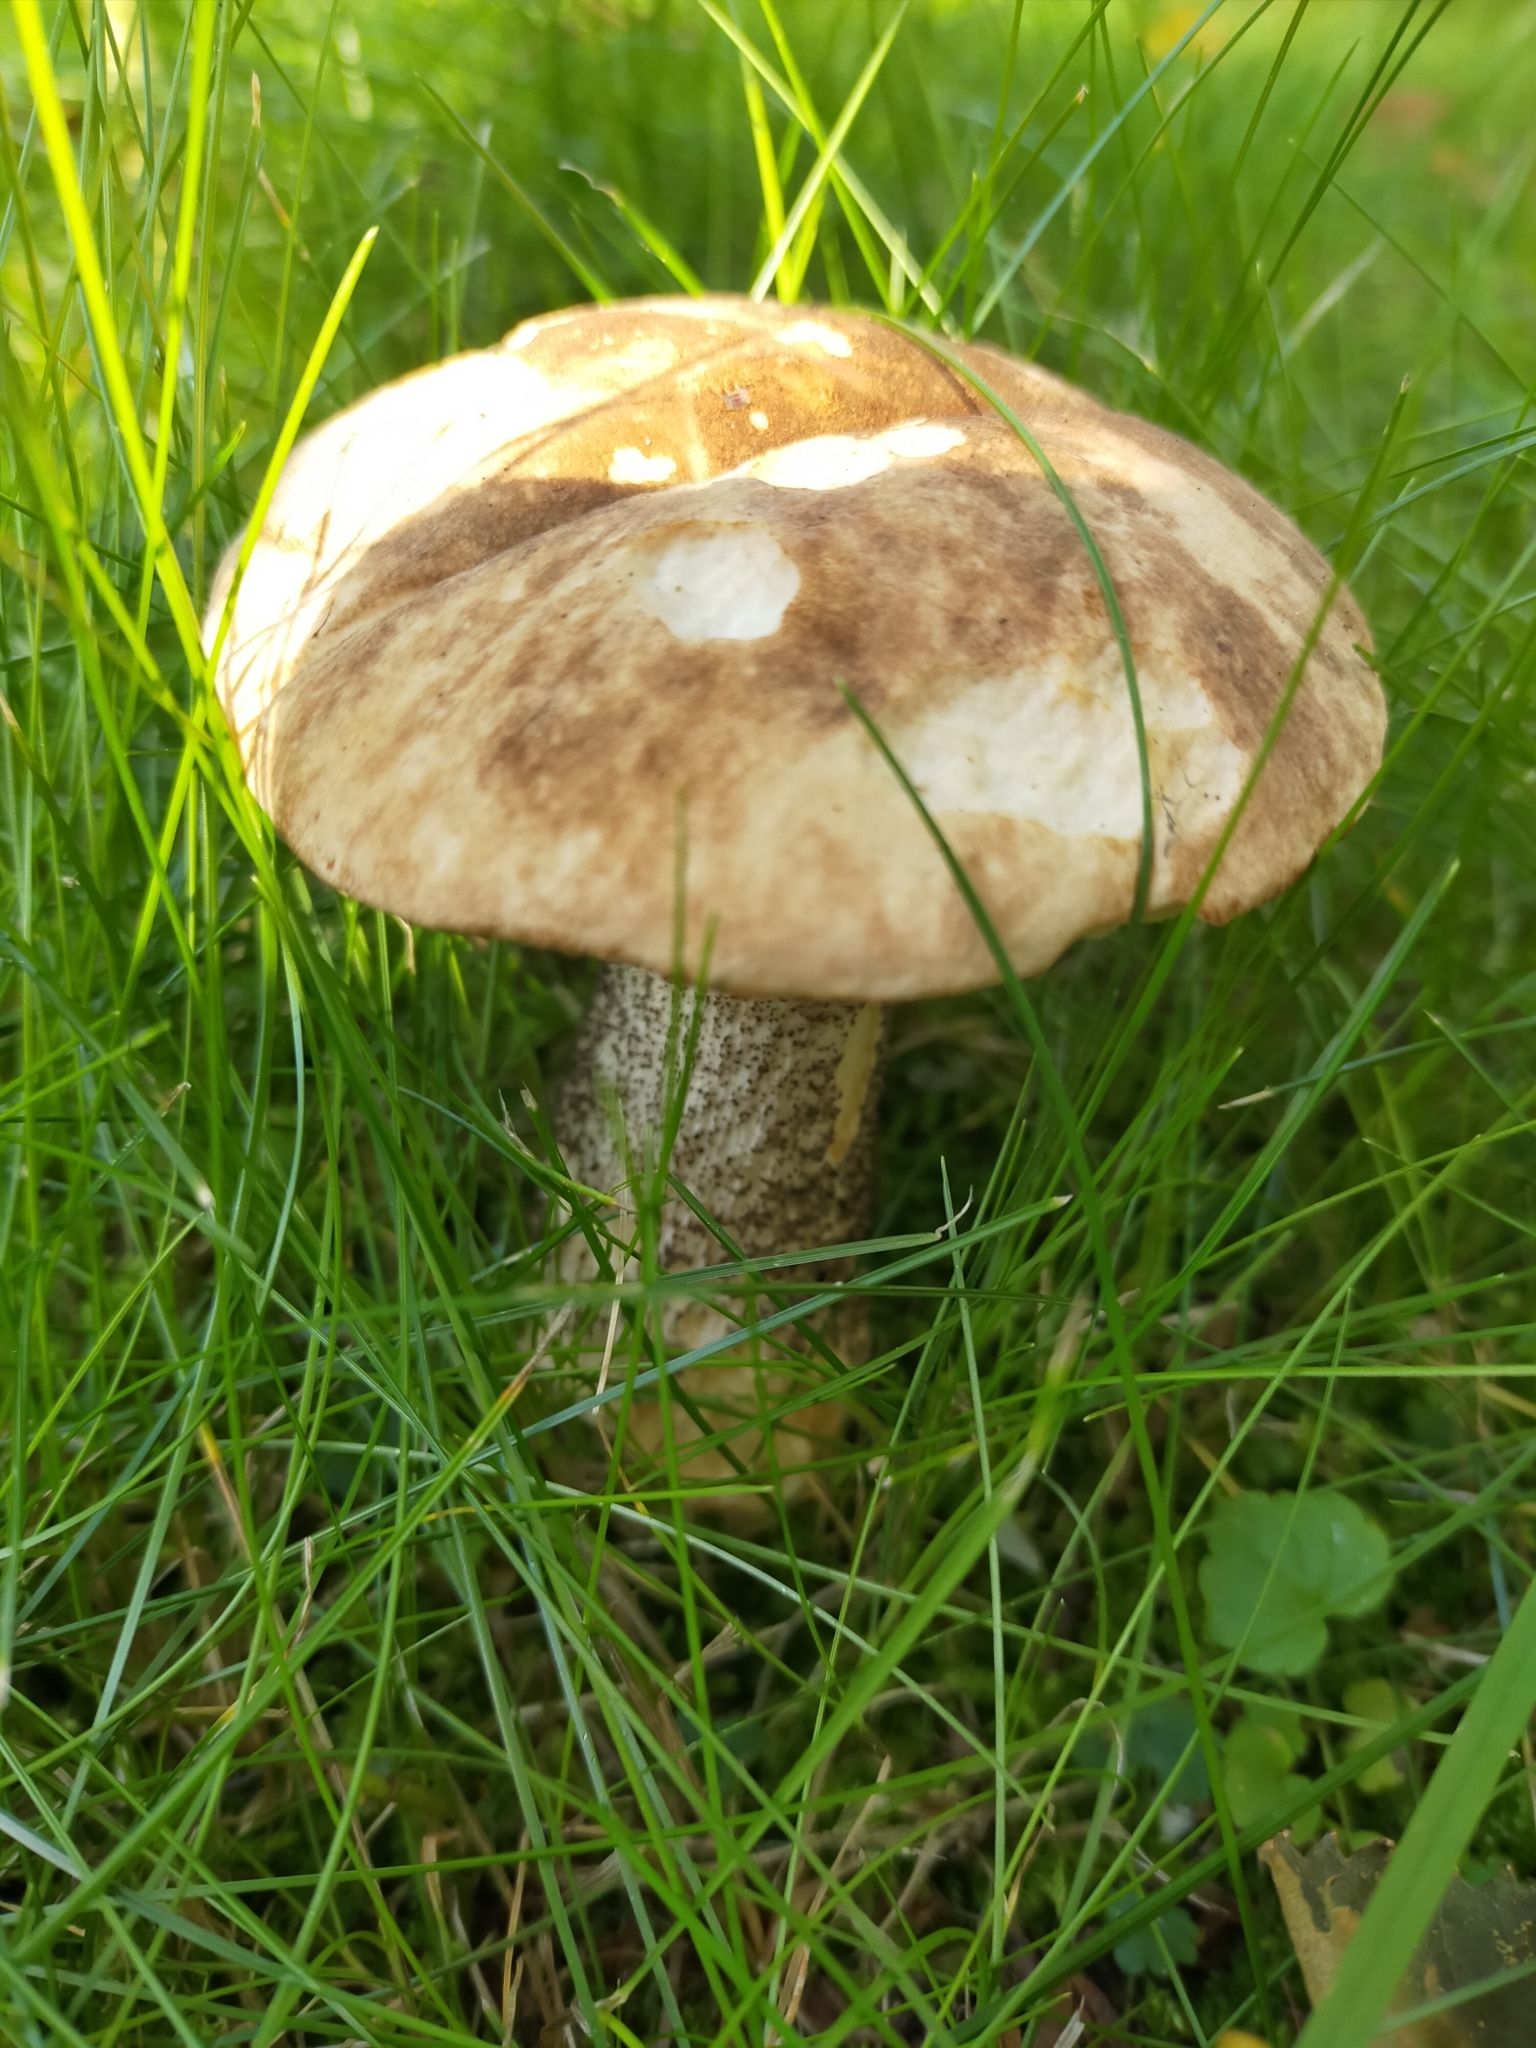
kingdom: Fungi
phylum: Basidiomycota
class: Agaricomycetes
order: Boletales
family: Boletaceae
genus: Leccinum
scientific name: Leccinum scabrum
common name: Blushing bolete
